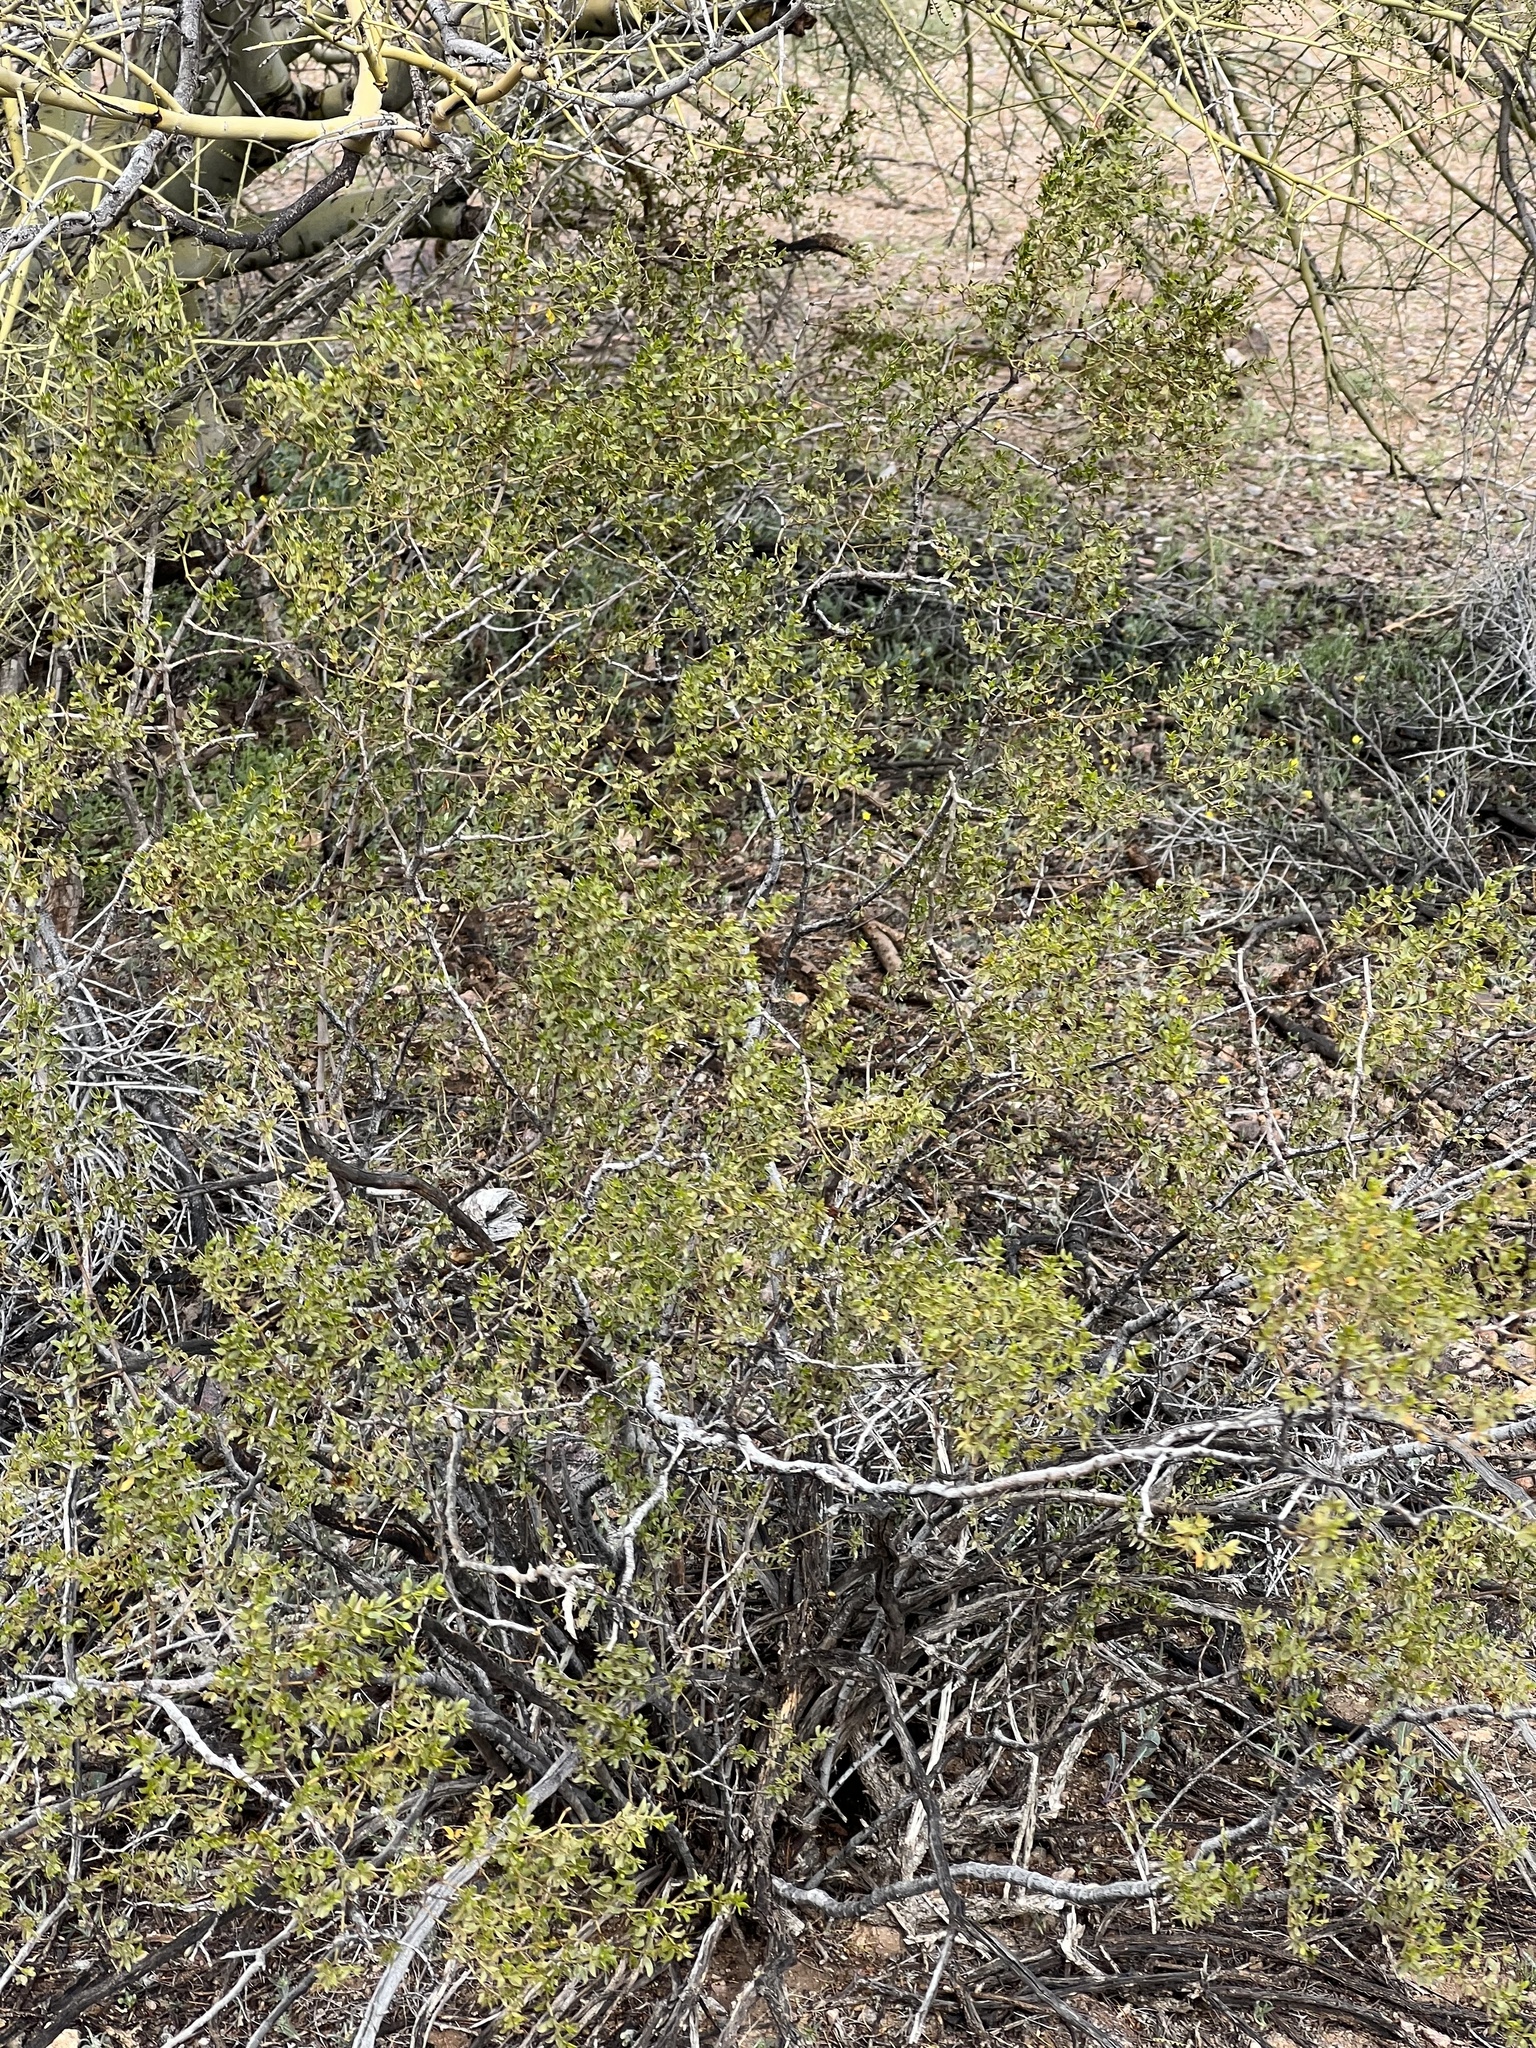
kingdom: Plantae
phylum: Tracheophyta
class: Magnoliopsida
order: Zygophyllales
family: Zygophyllaceae
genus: Larrea
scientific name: Larrea tridentata
